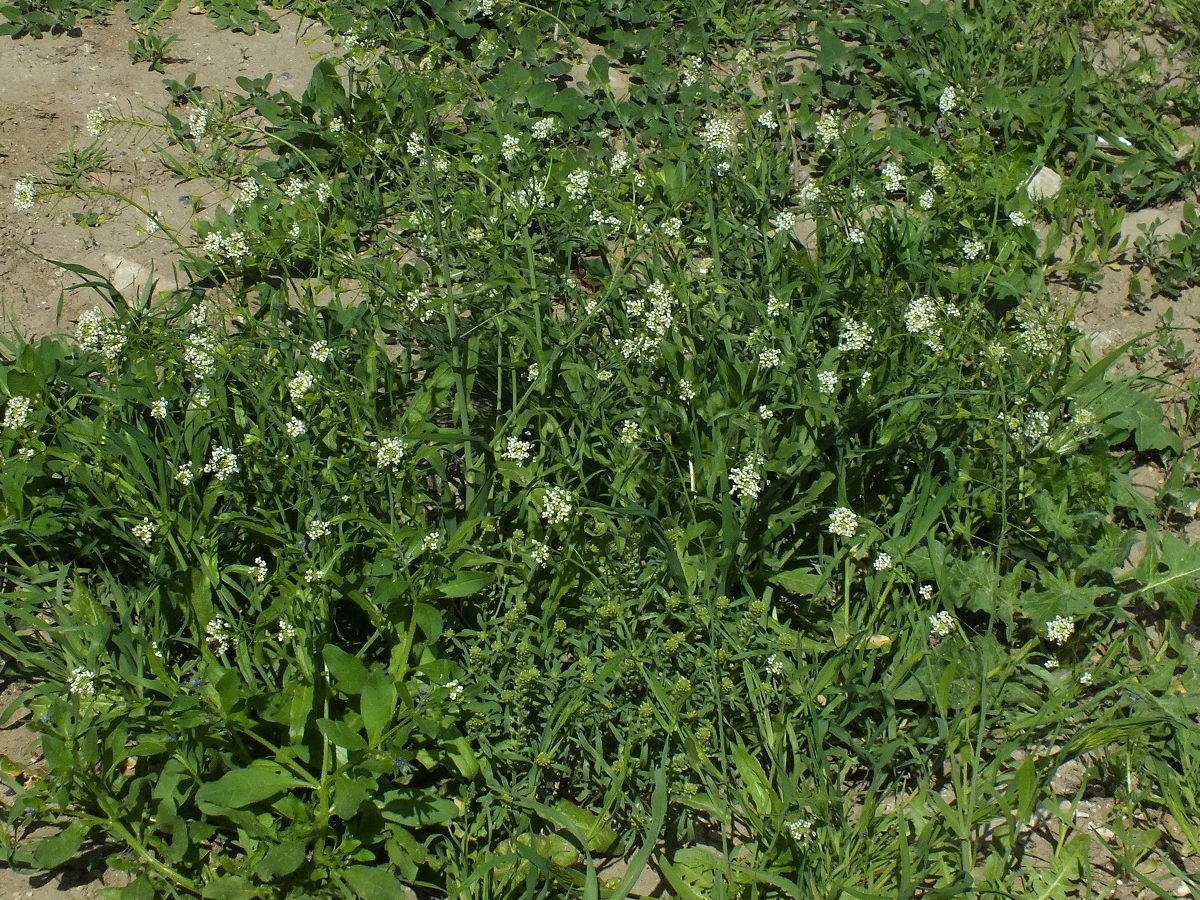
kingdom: Plantae
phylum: Tracheophyta
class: Magnoliopsida
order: Brassicales
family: Brassicaceae
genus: Capsella
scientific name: Capsella bursa-pastoris
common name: Shepherd's purse
